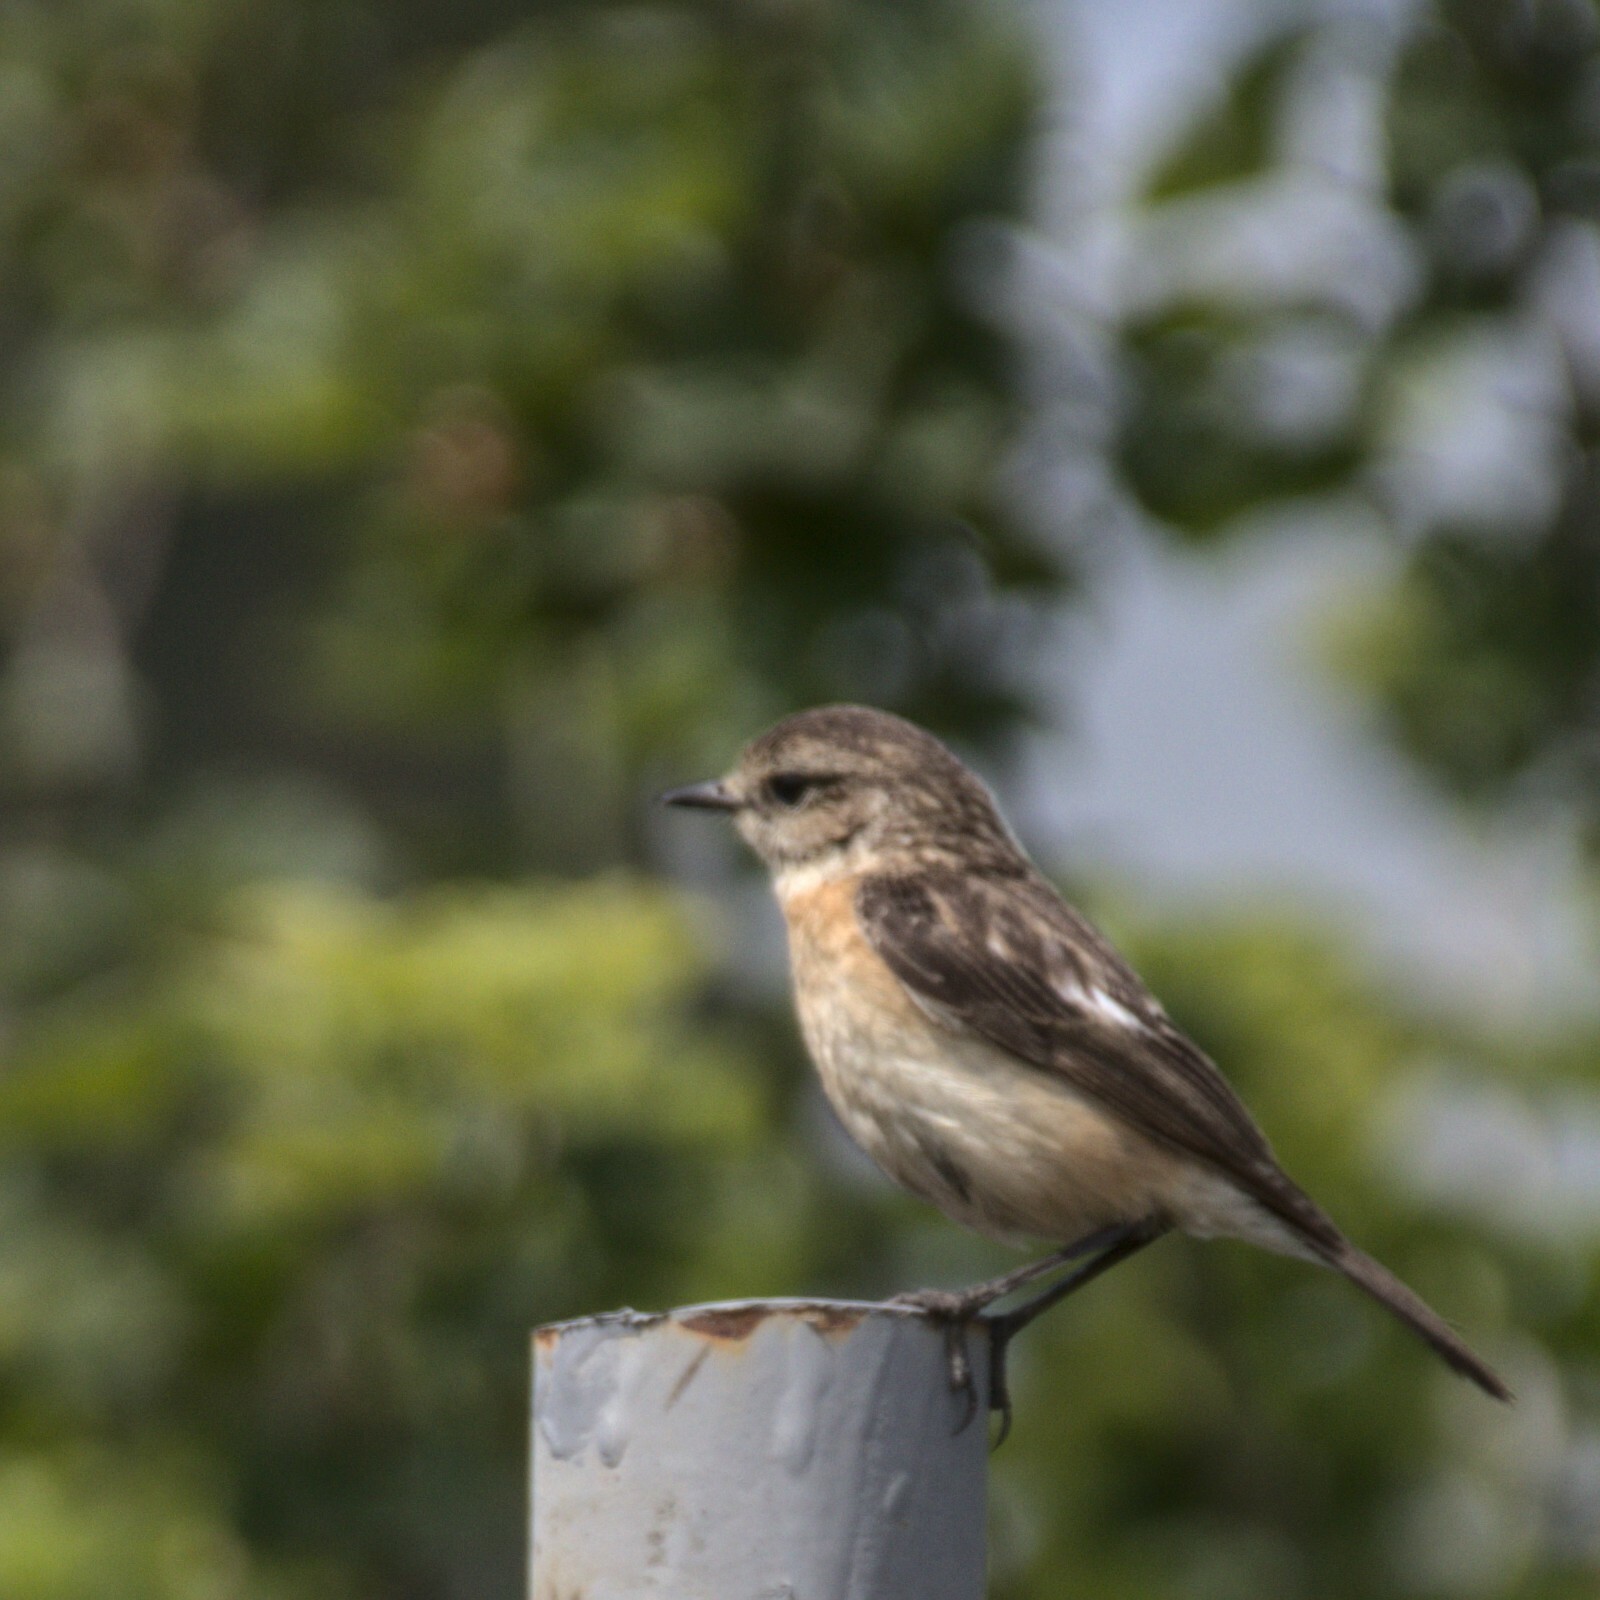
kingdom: Animalia
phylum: Chordata
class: Aves
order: Passeriformes
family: Muscicapidae
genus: Saxicola
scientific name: Saxicola maurus
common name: Siberian stonechat
